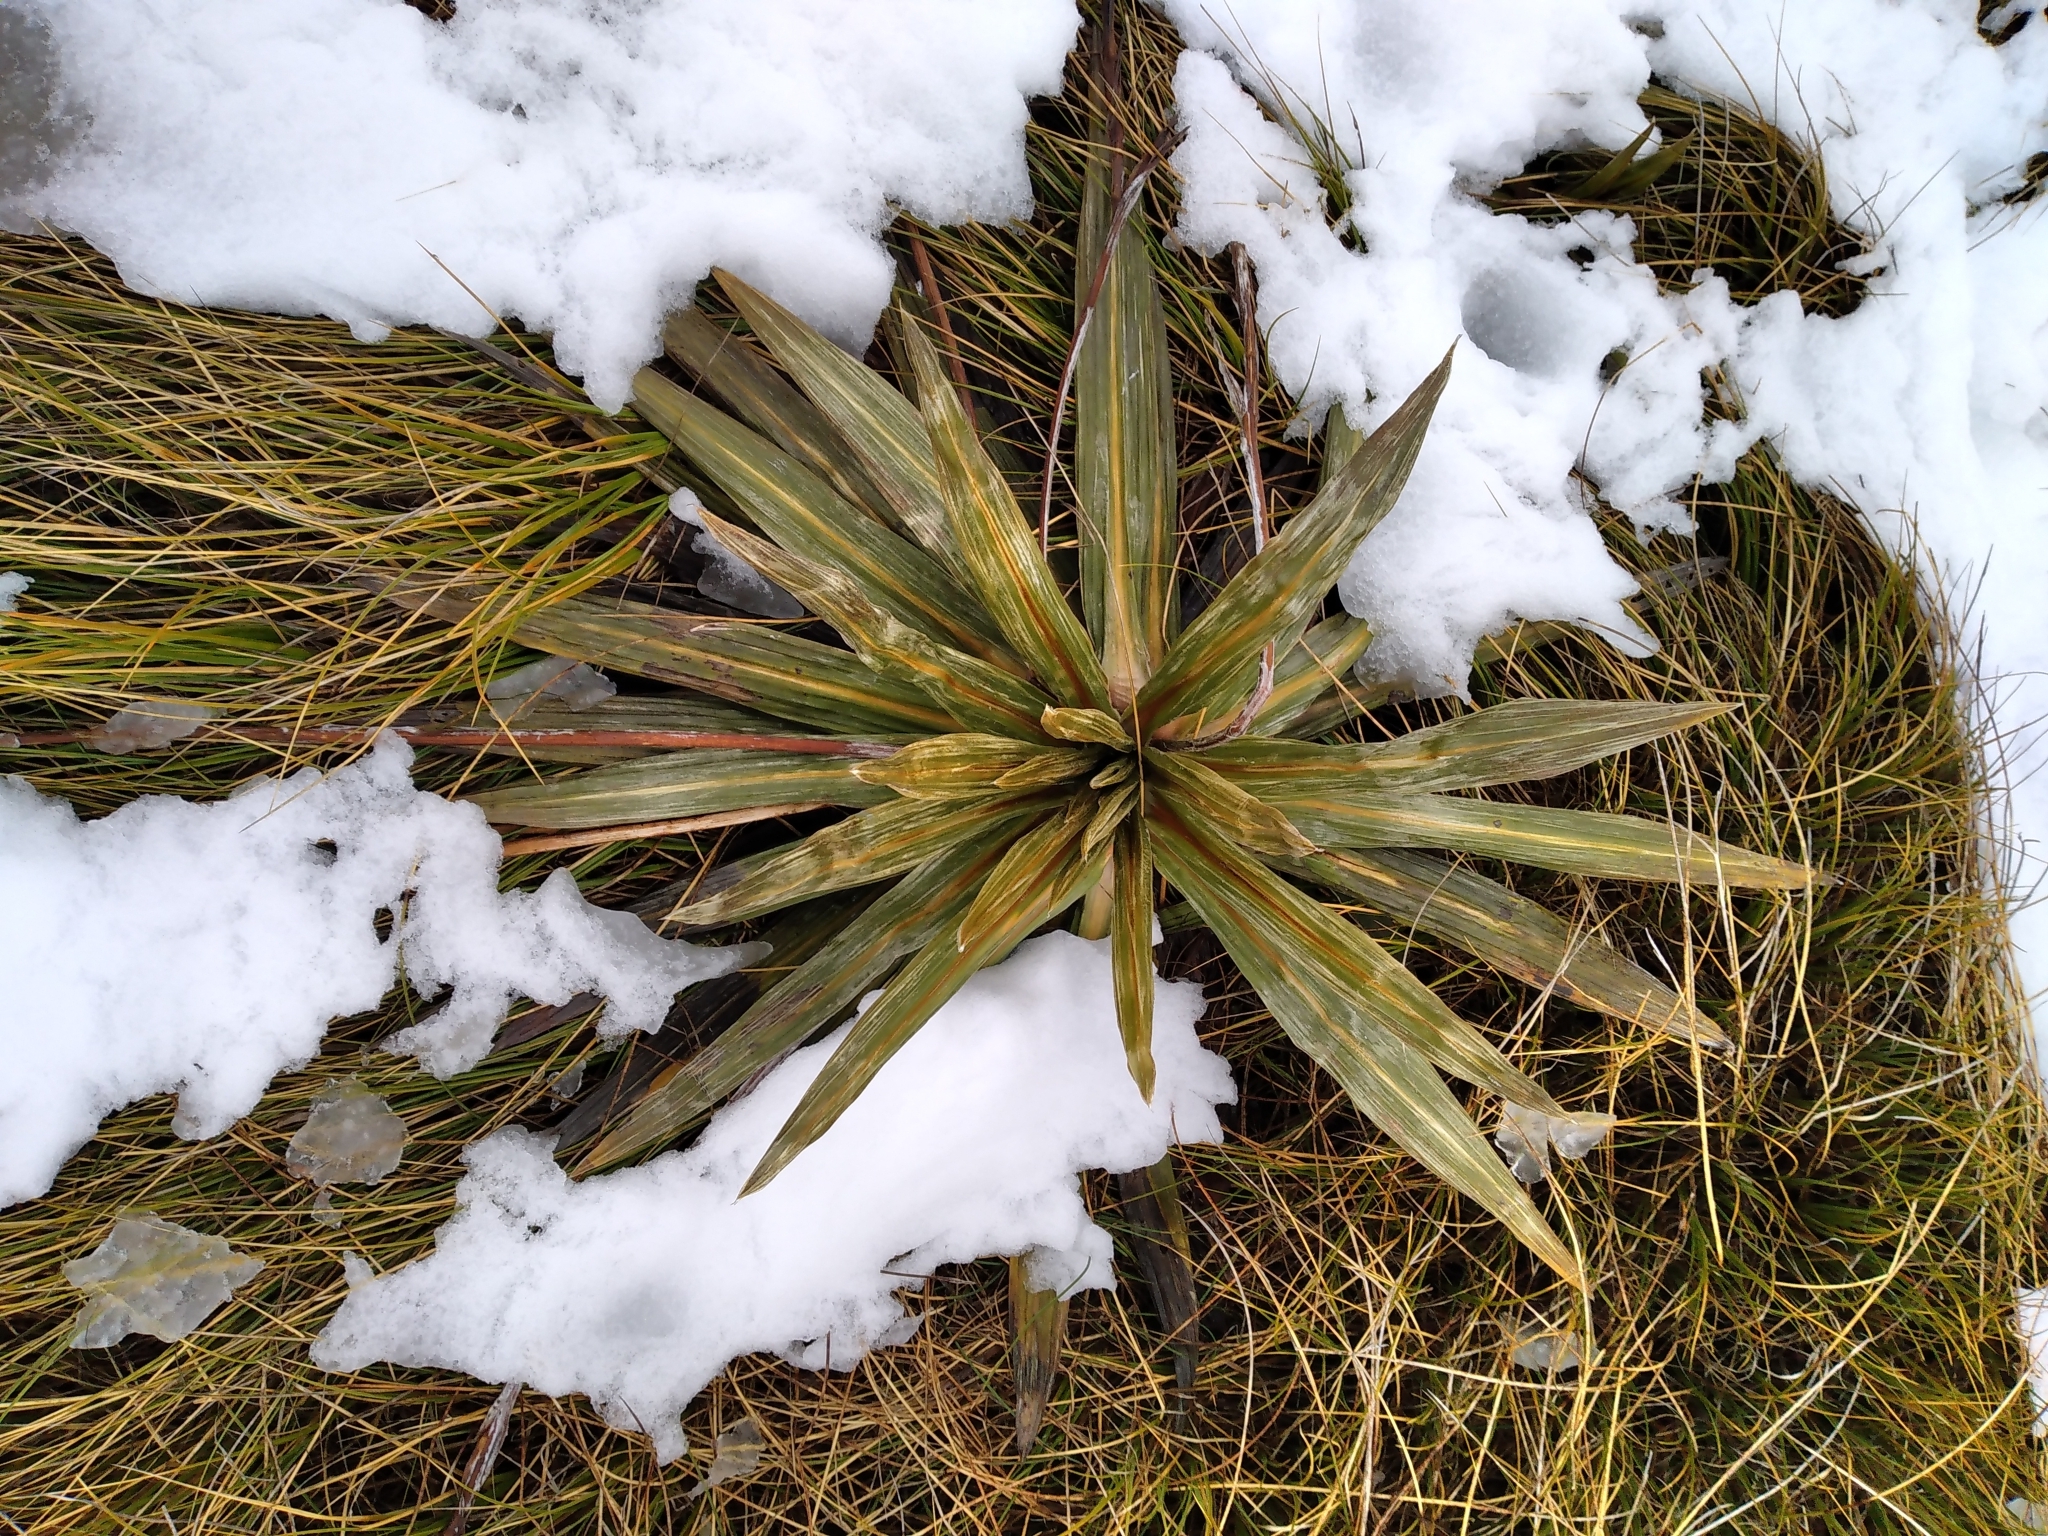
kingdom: Plantae
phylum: Tracheophyta
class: Magnoliopsida
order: Asterales
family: Asteraceae
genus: Celmisia
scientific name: Celmisia coriacea
